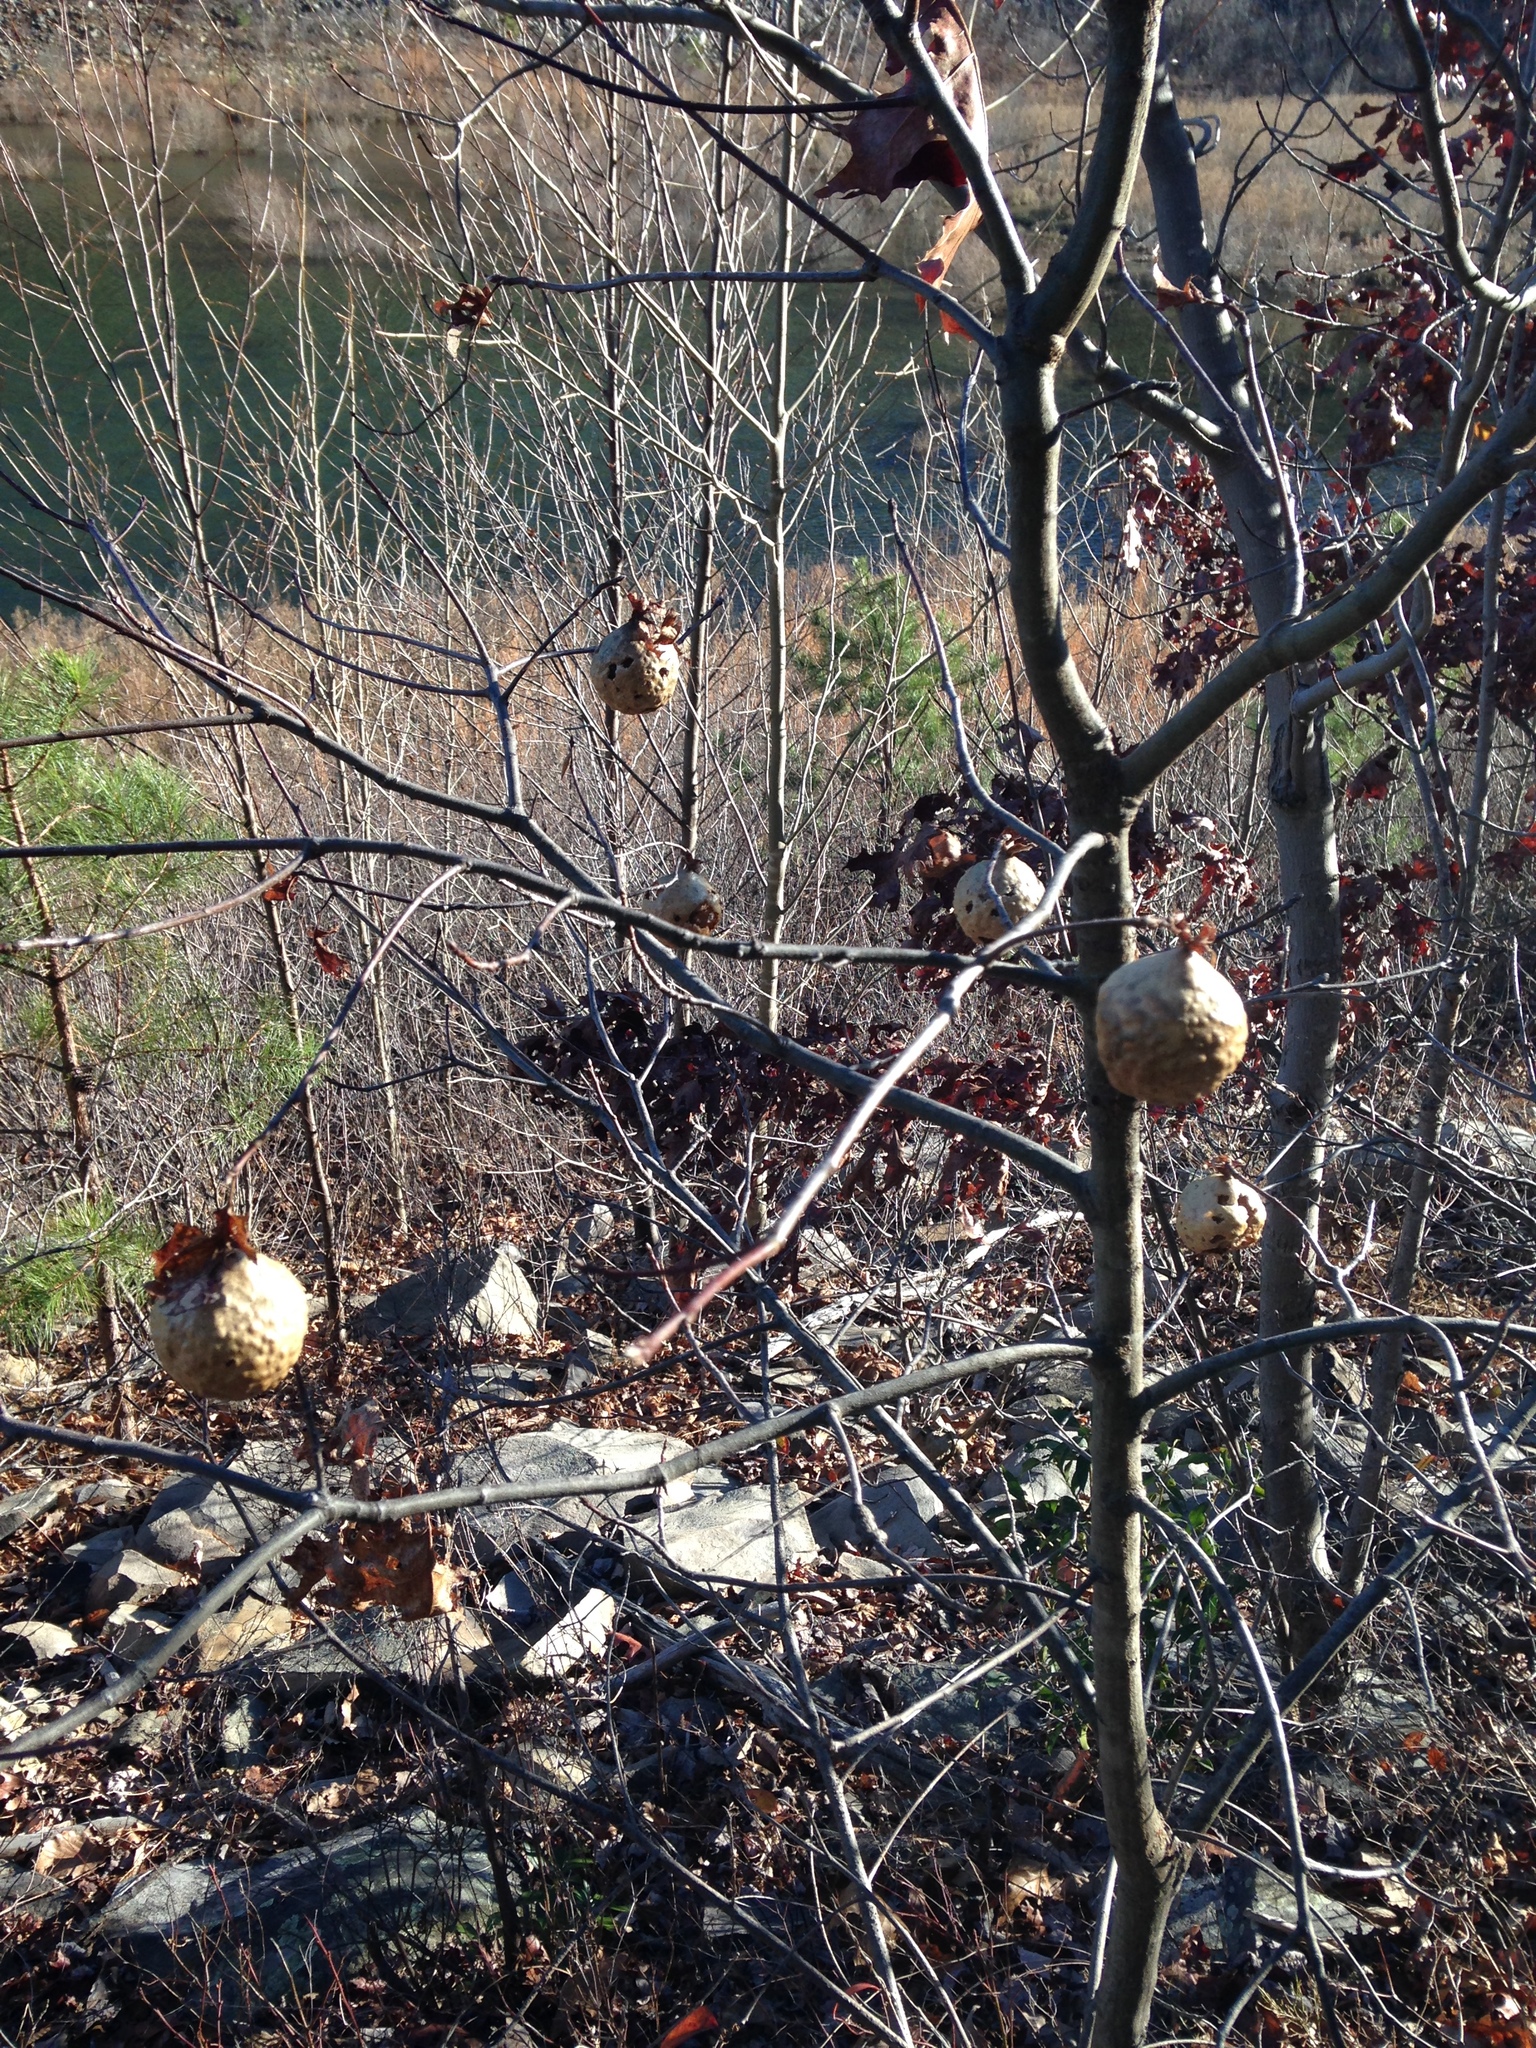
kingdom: Animalia
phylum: Arthropoda
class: Insecta
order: Hymenoptera
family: Cynipidae
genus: Amphibolips
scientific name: Amphibolips
